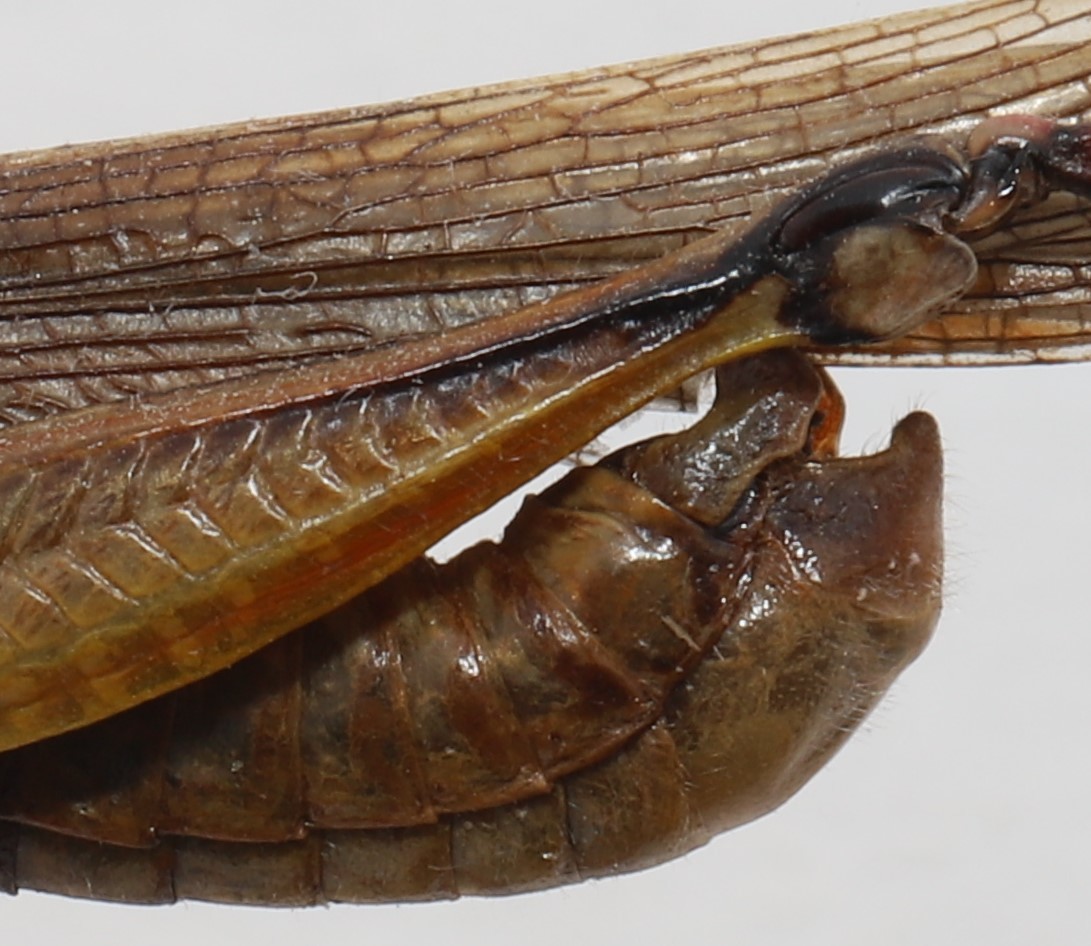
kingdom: Animalia
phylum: Arthropoda
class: Insecta
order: Orthoptera
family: Acrididae
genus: Melanoplus
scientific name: Melanoplus bivittatus
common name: Two-striped grasshopper
